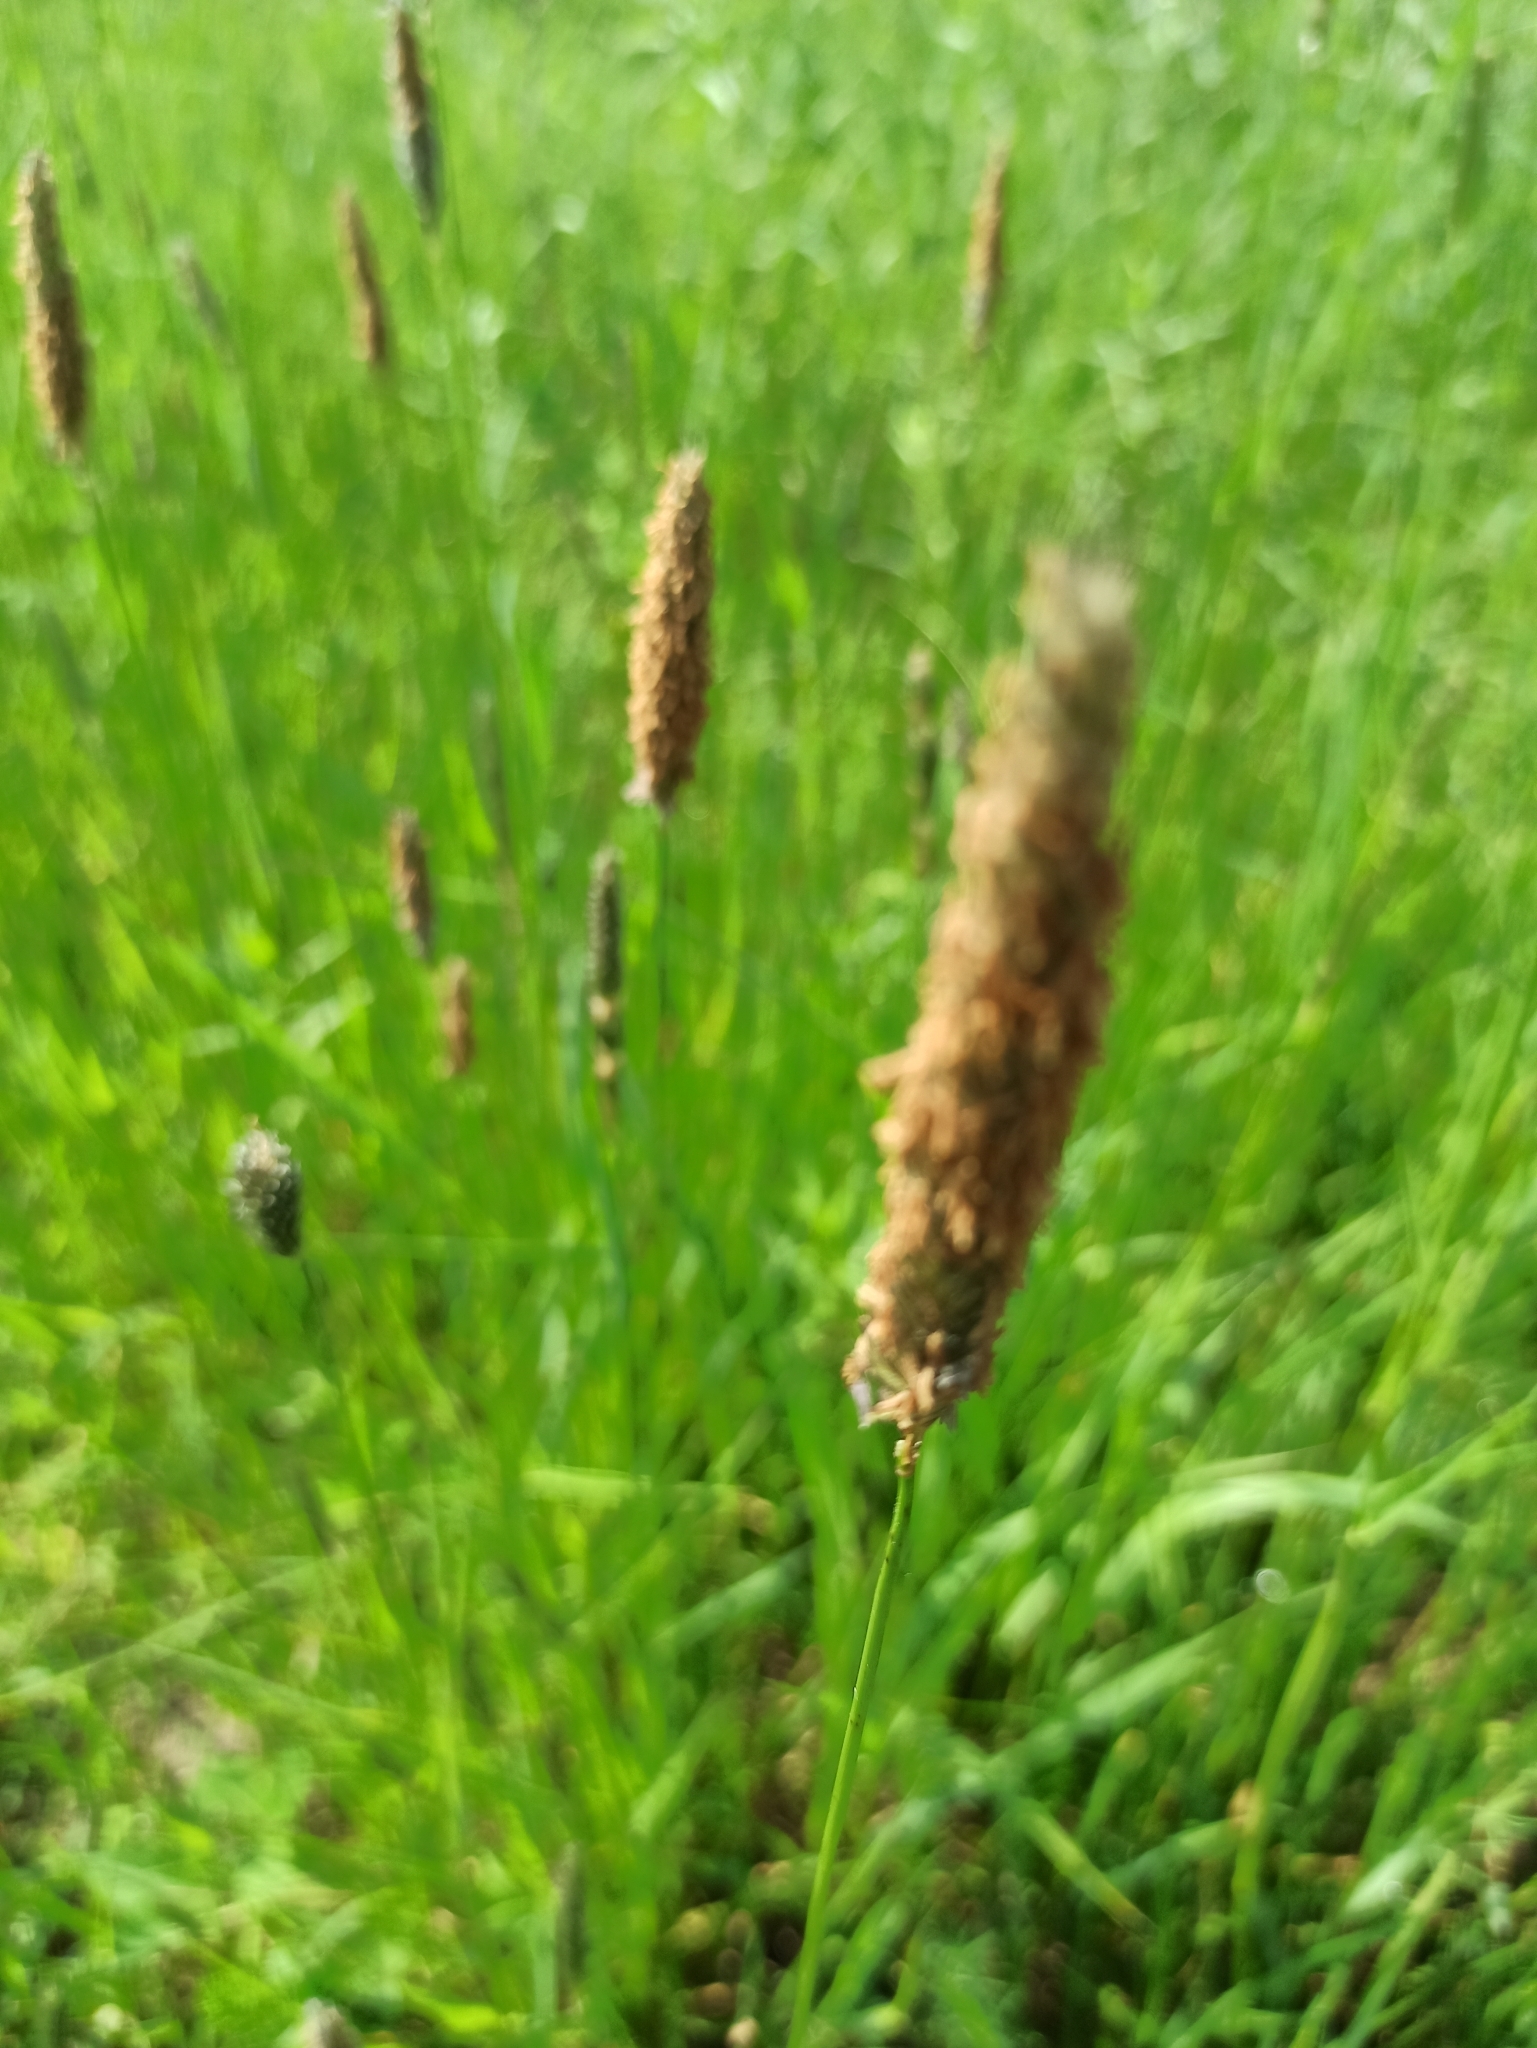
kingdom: Plantae
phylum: Tracheophyta
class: Liliopsida
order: Poales
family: Poaceae
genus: Alopecurus
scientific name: Alopecurus pratensis
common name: Meadow foxtail
